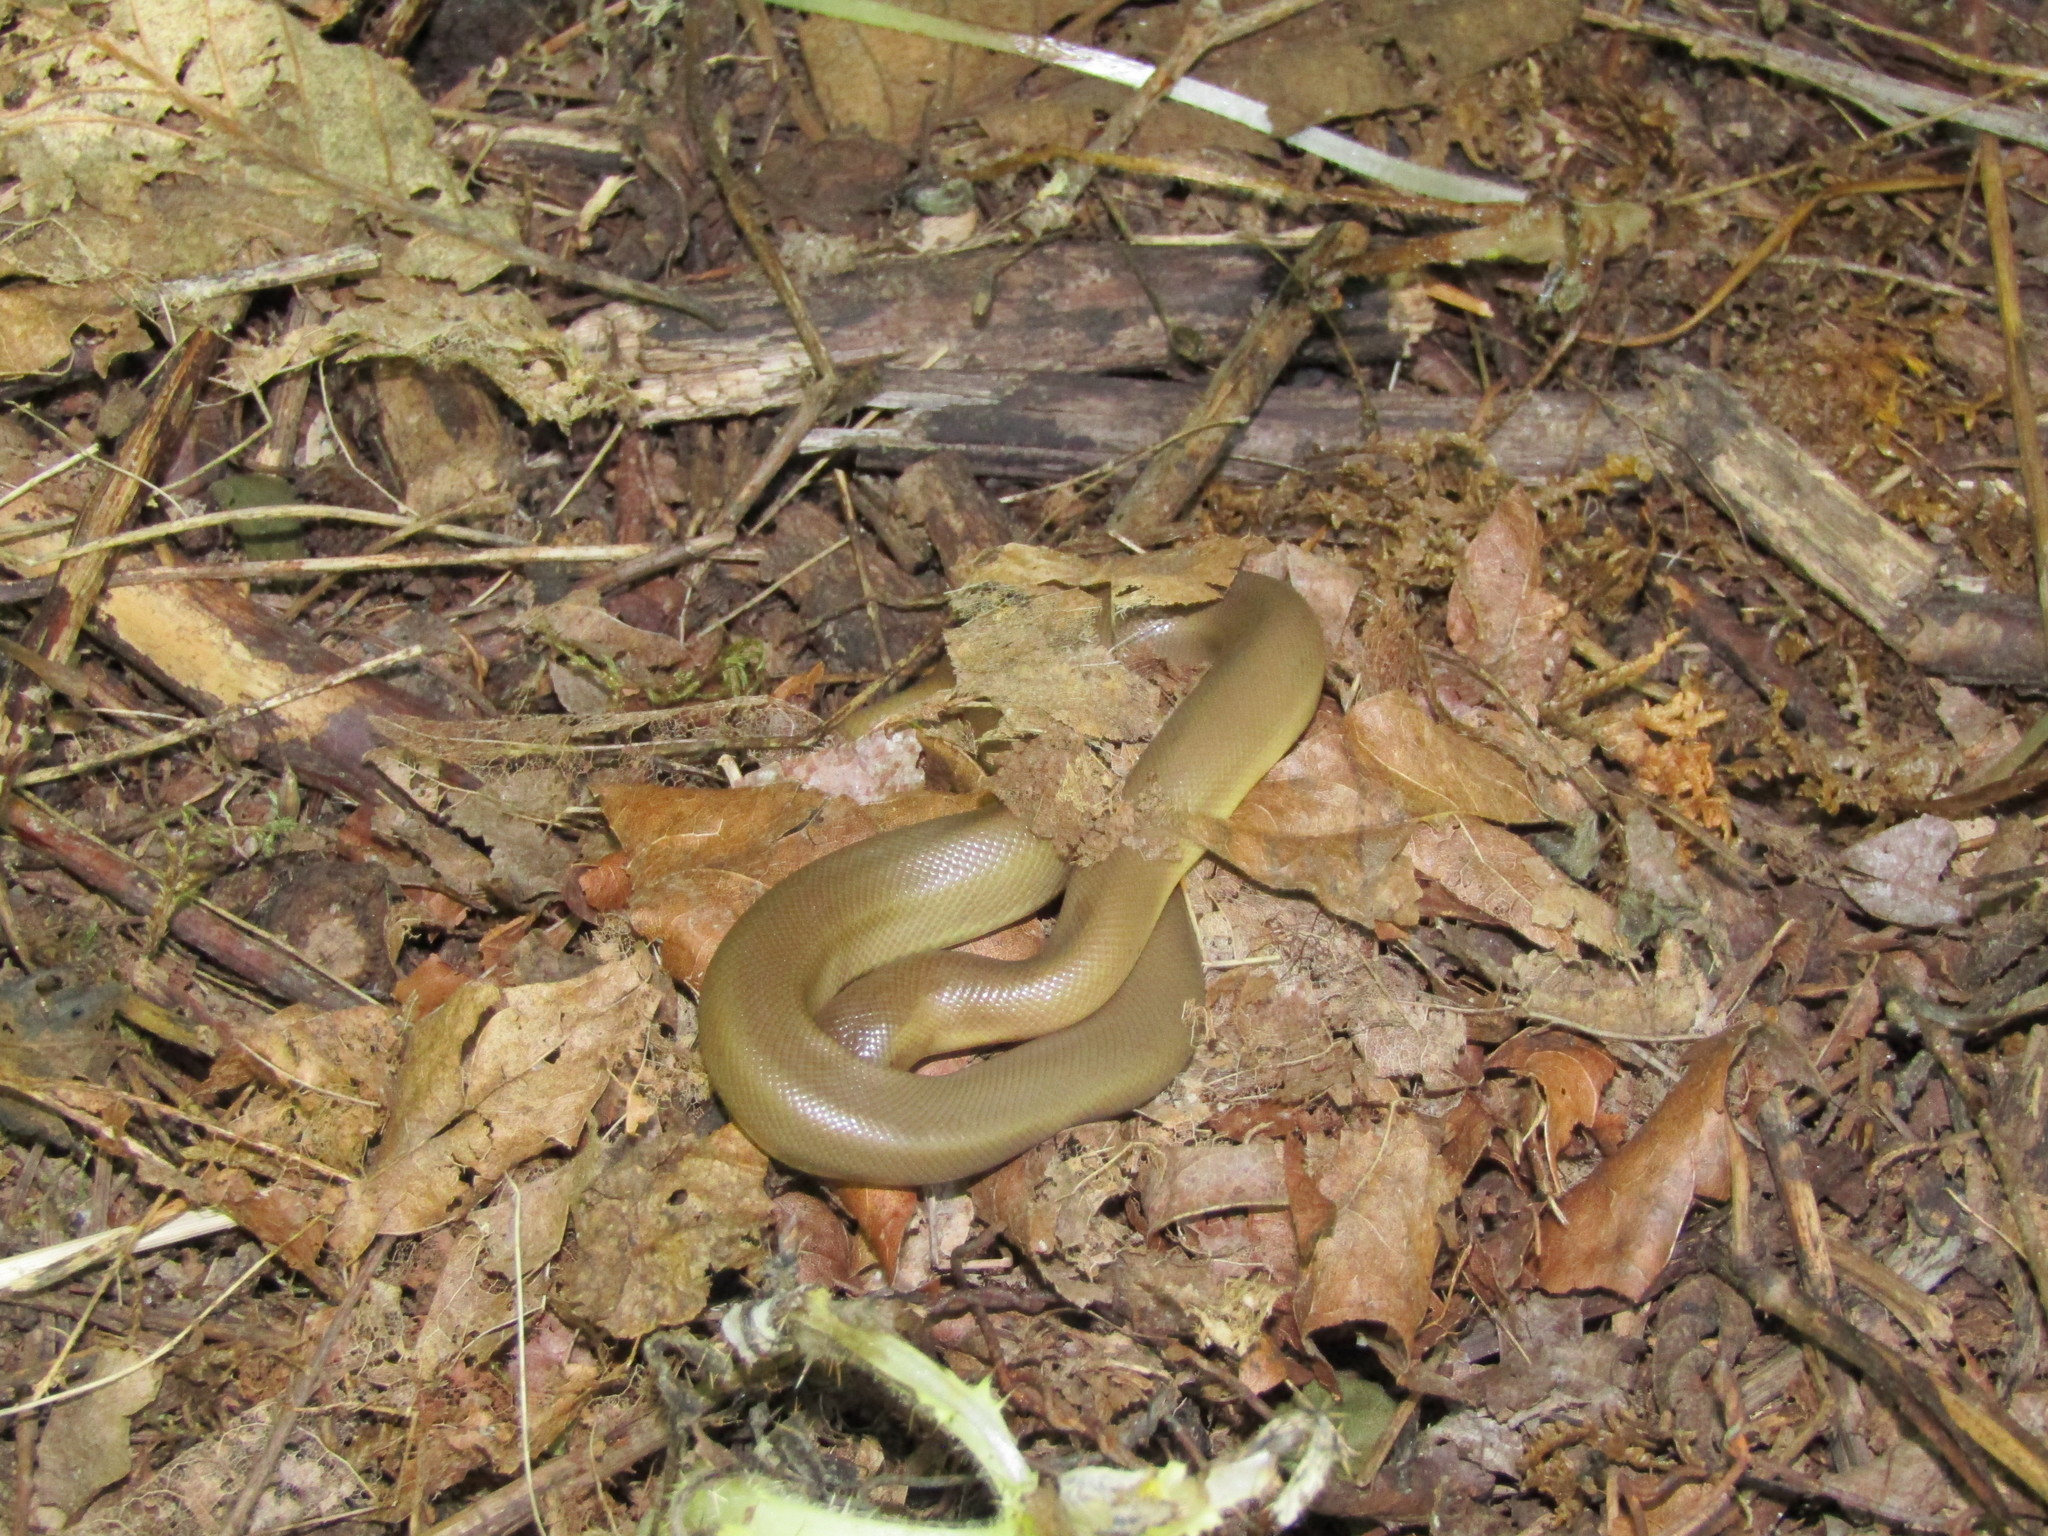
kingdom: Animalia
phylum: Chordata
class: Squamata
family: Boidae
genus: Charina
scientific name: Charina bottae
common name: Northern rubber boa
